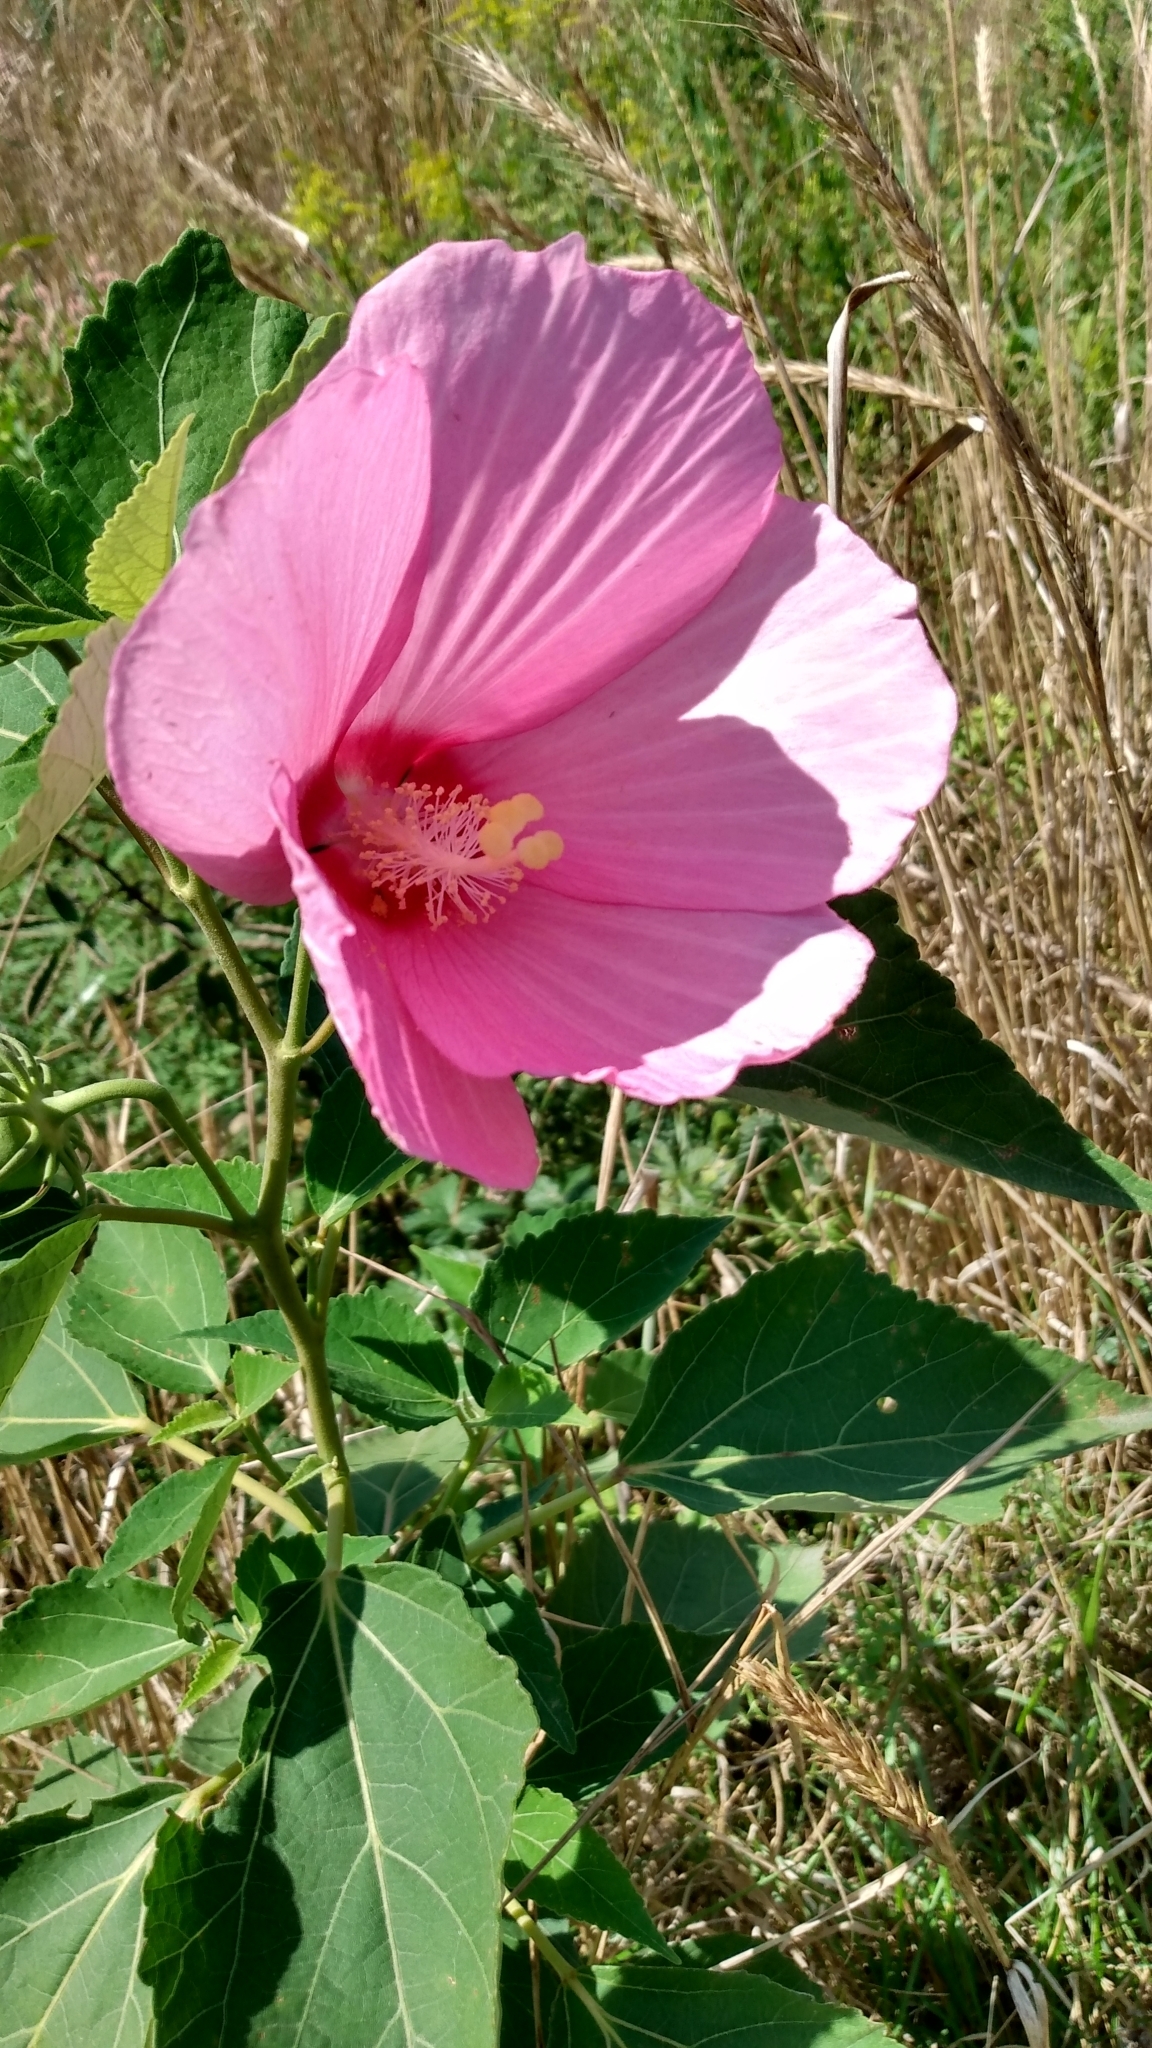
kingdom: Plantae
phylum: Tracheophyta
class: Magnoliopsida
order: Malvales
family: Malvaceae
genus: Hibiscus
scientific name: Hibiscus moscheutos
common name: Common rose-mallow
